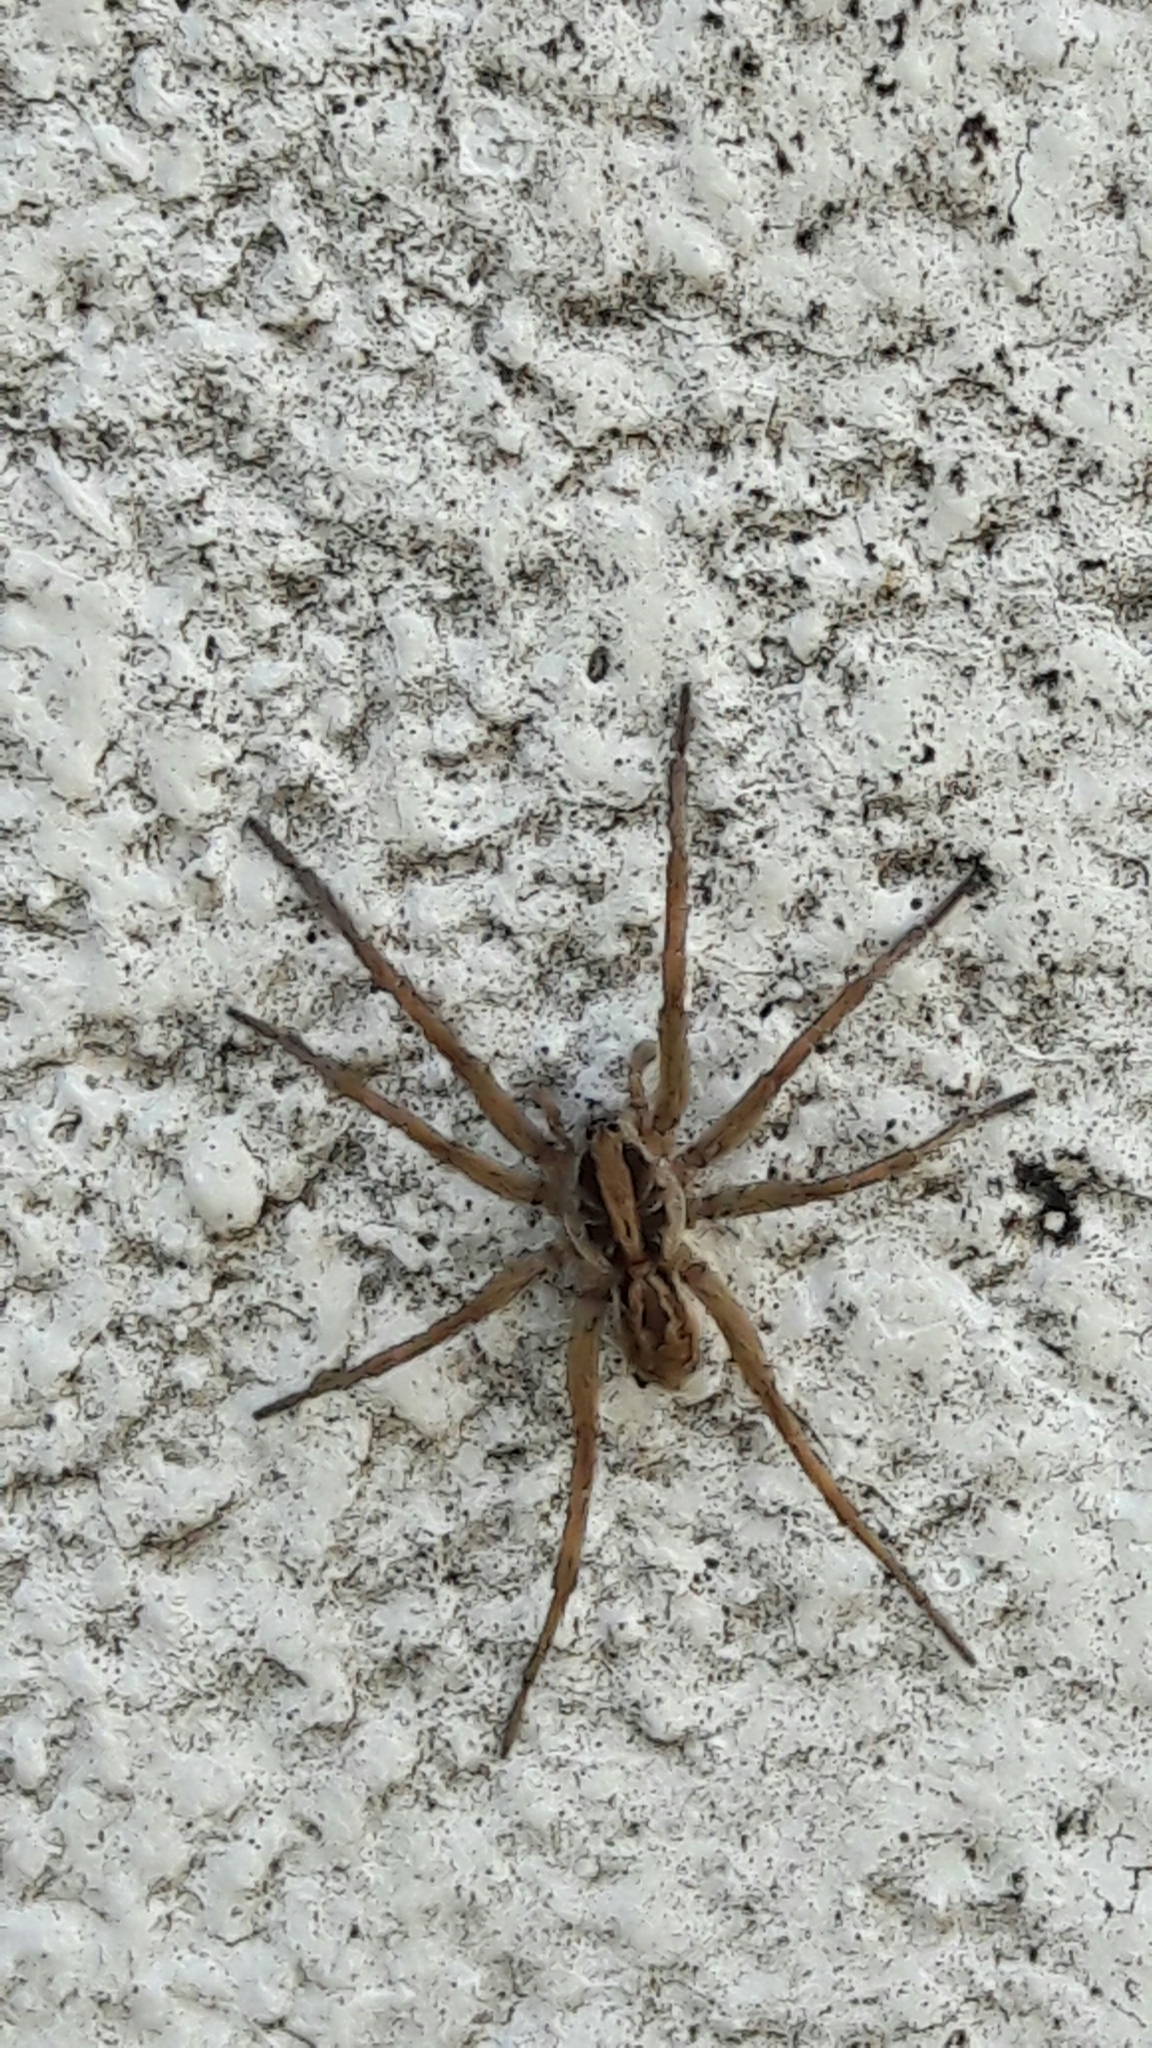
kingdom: Animalia
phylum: Arthropoda
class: Arachnida
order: Araneae
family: Lycosidae
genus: Lycosa
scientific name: Lycosa erythrognatha
